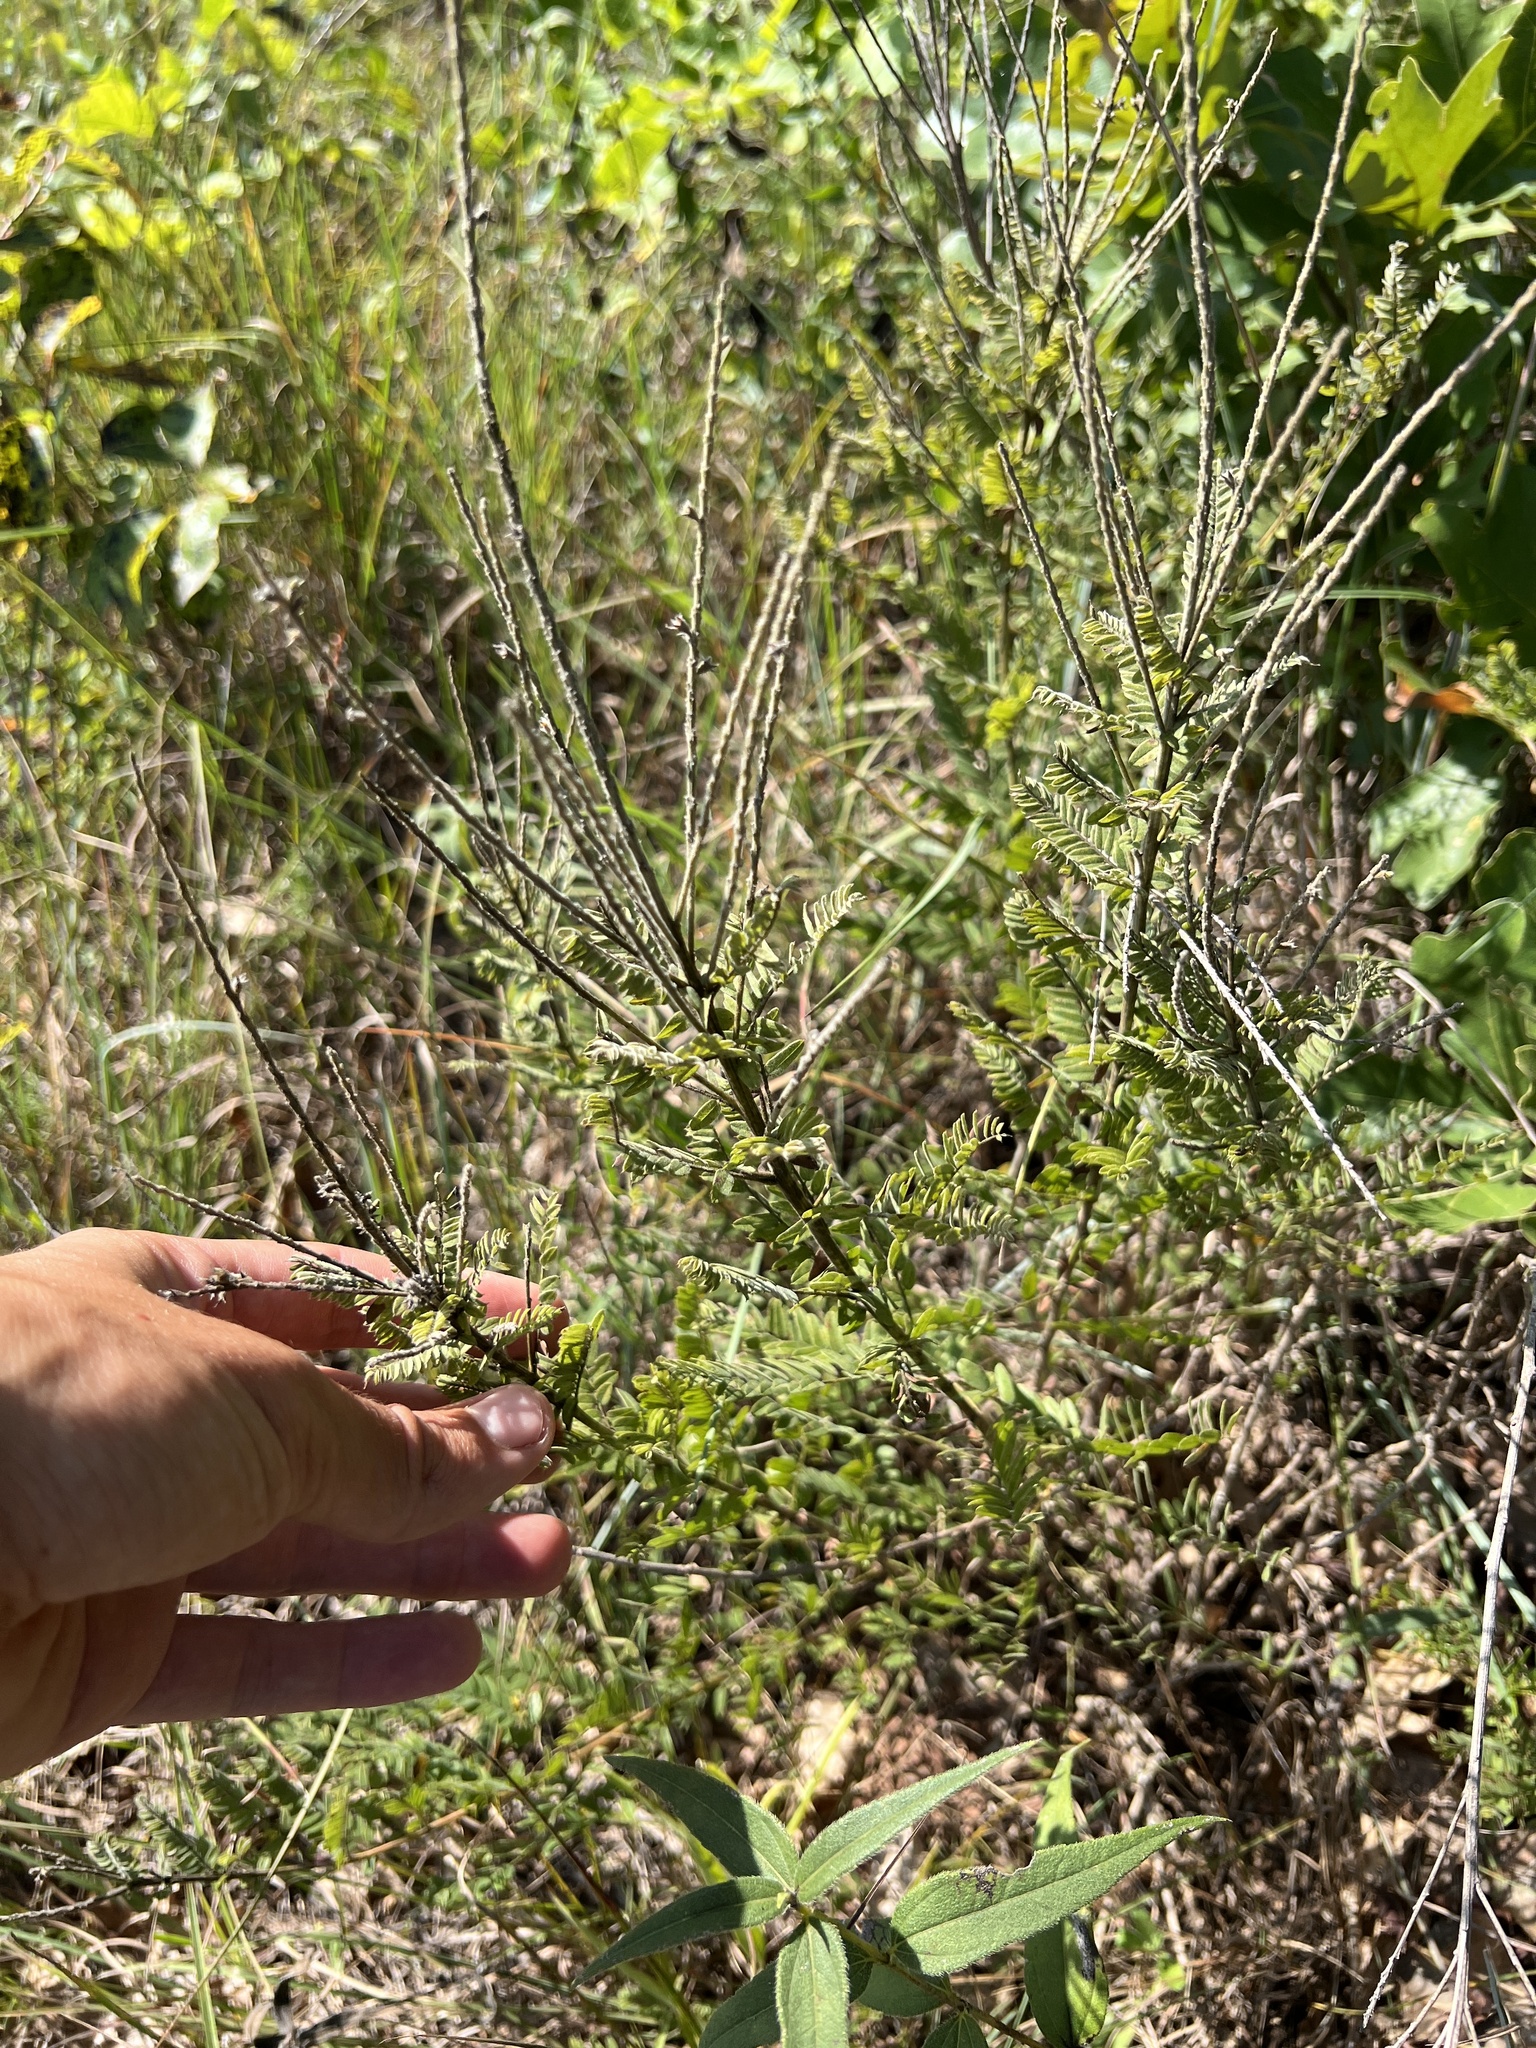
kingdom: Plantae
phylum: Tracheophyta
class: Magnoliopsida
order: Fabales
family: Fabaceae
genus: Amorpha
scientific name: Amorpha canescens
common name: Leadplant
